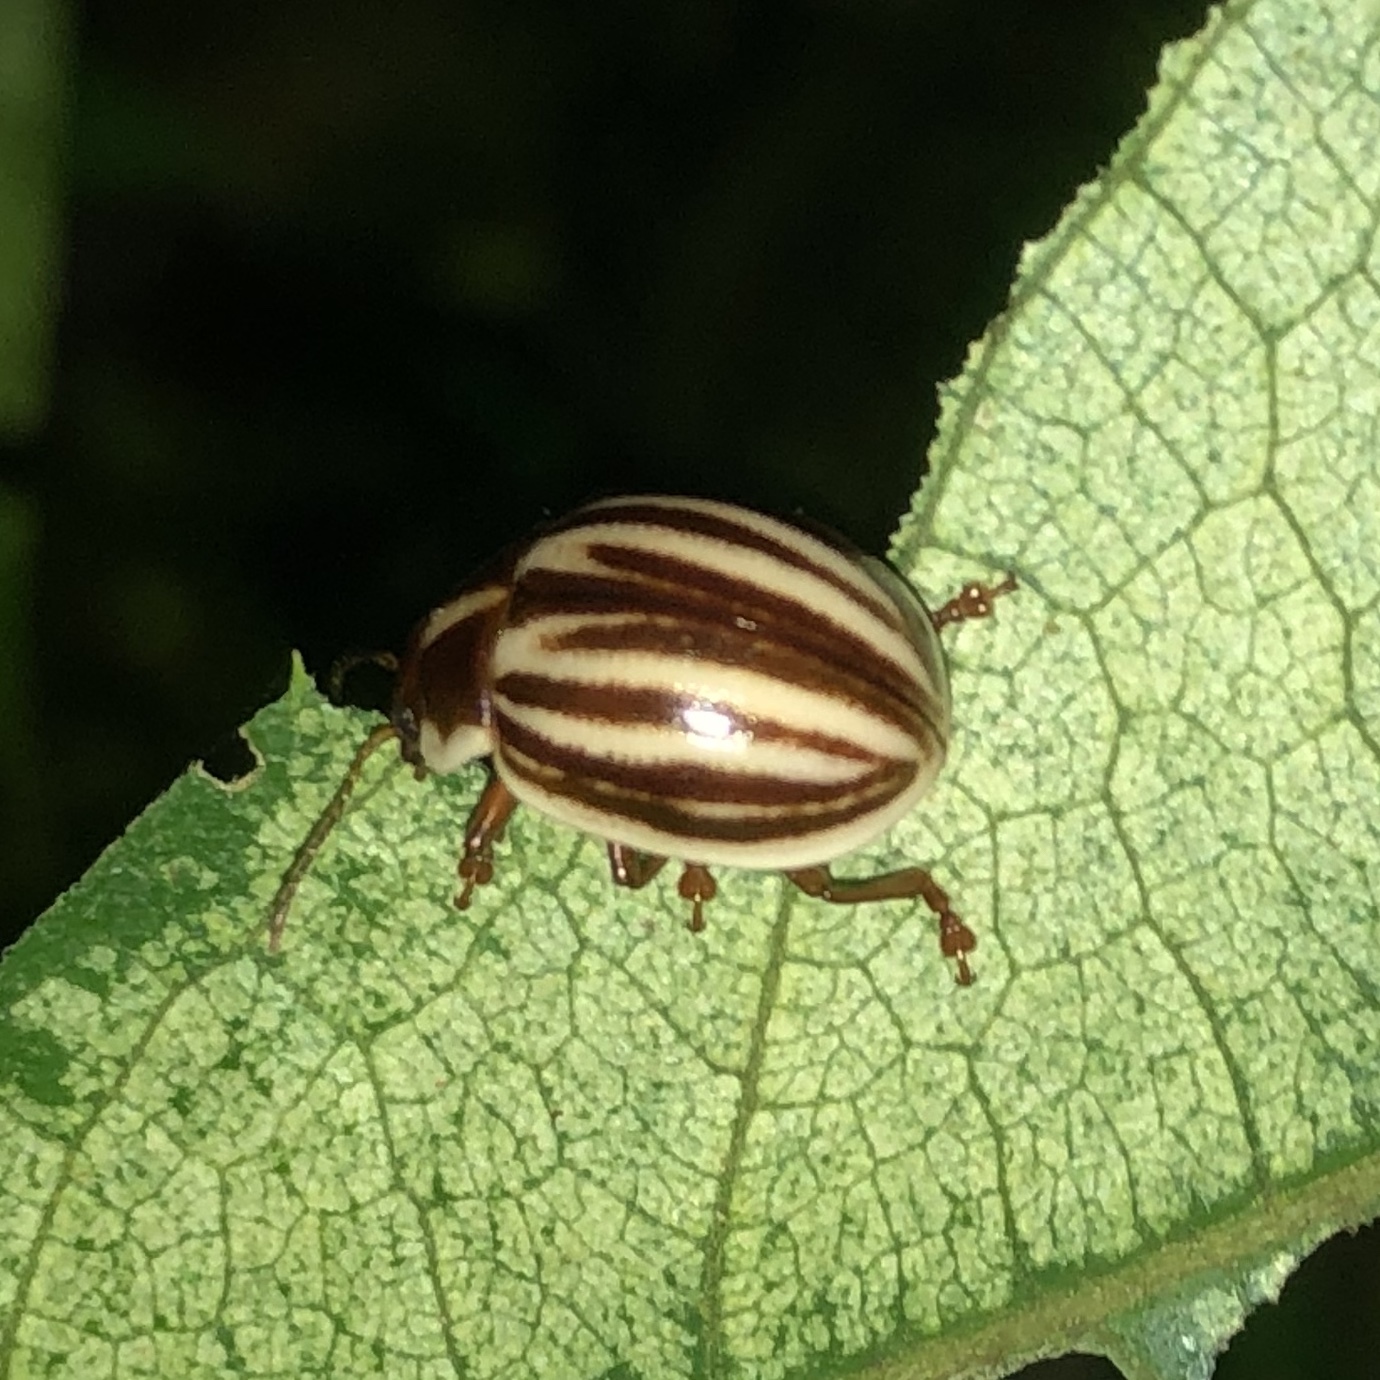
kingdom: Animalia
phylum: Arthropoda
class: Insecta
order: Coleoptera
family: Chrysomelidae
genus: Platyphora
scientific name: Platyphora
